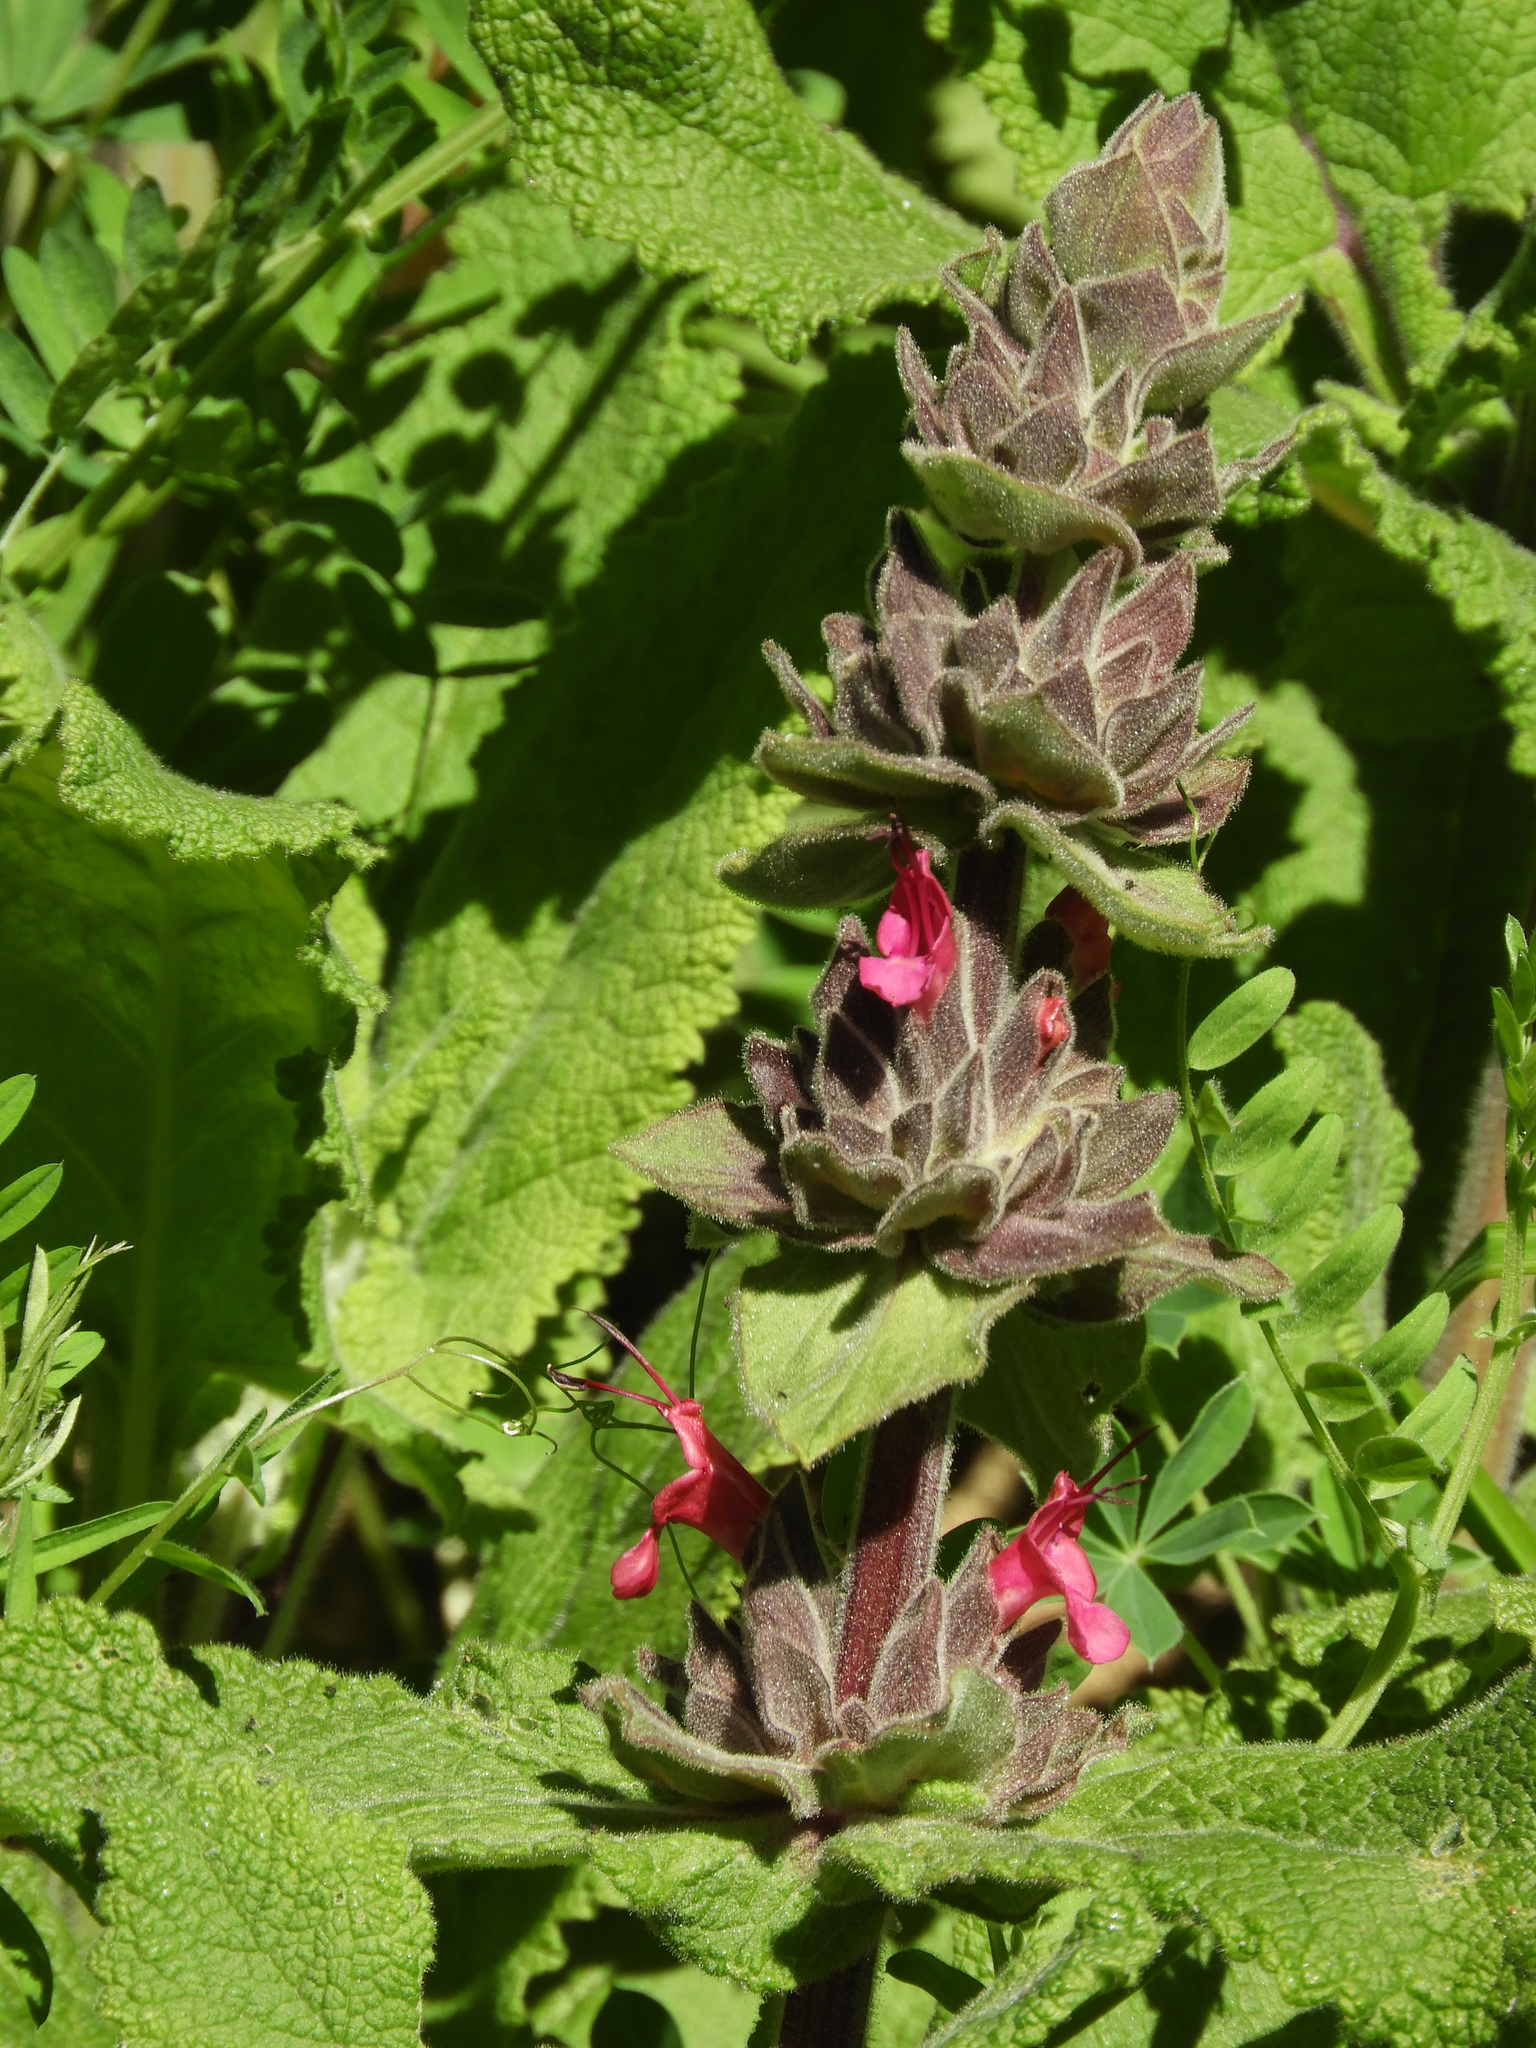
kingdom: Plantae
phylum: Tracheophyta
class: Magnoliopsida
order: Lamiales
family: Lamiaceae
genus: Salvia
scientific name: Salvia spathacea
